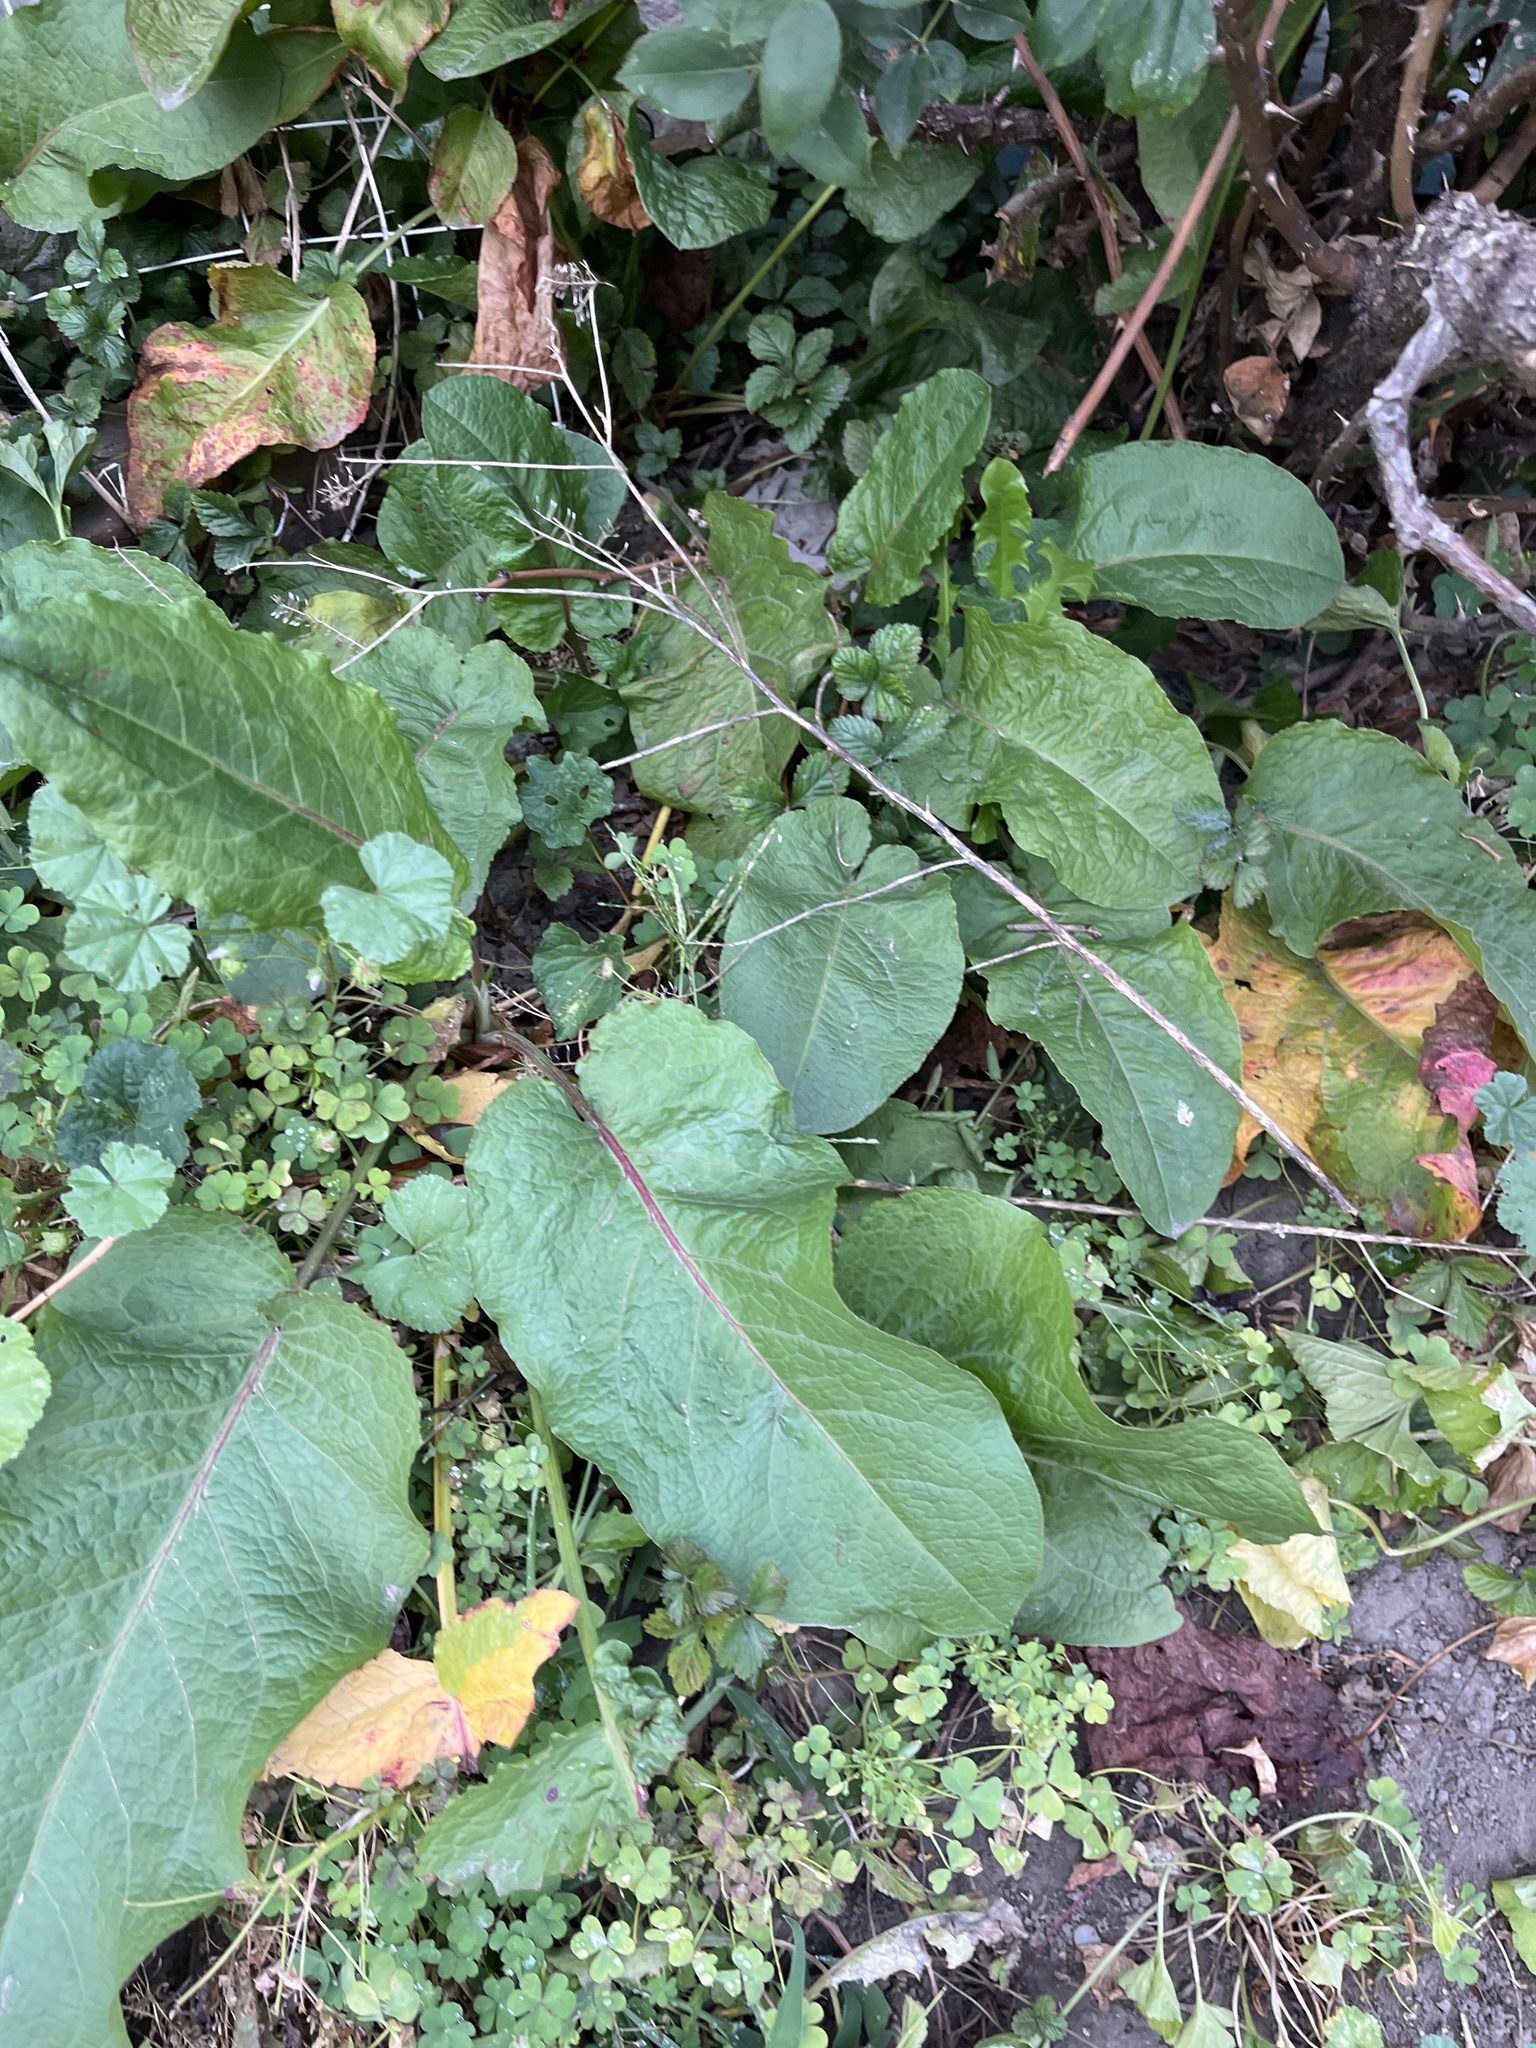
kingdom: Plantae
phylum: Tracheophyta
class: Magnoliopsida
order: Caryophyllales
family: Polygonaceae
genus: Rumex
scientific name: Rumex obtusifolius
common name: Bitter dock
